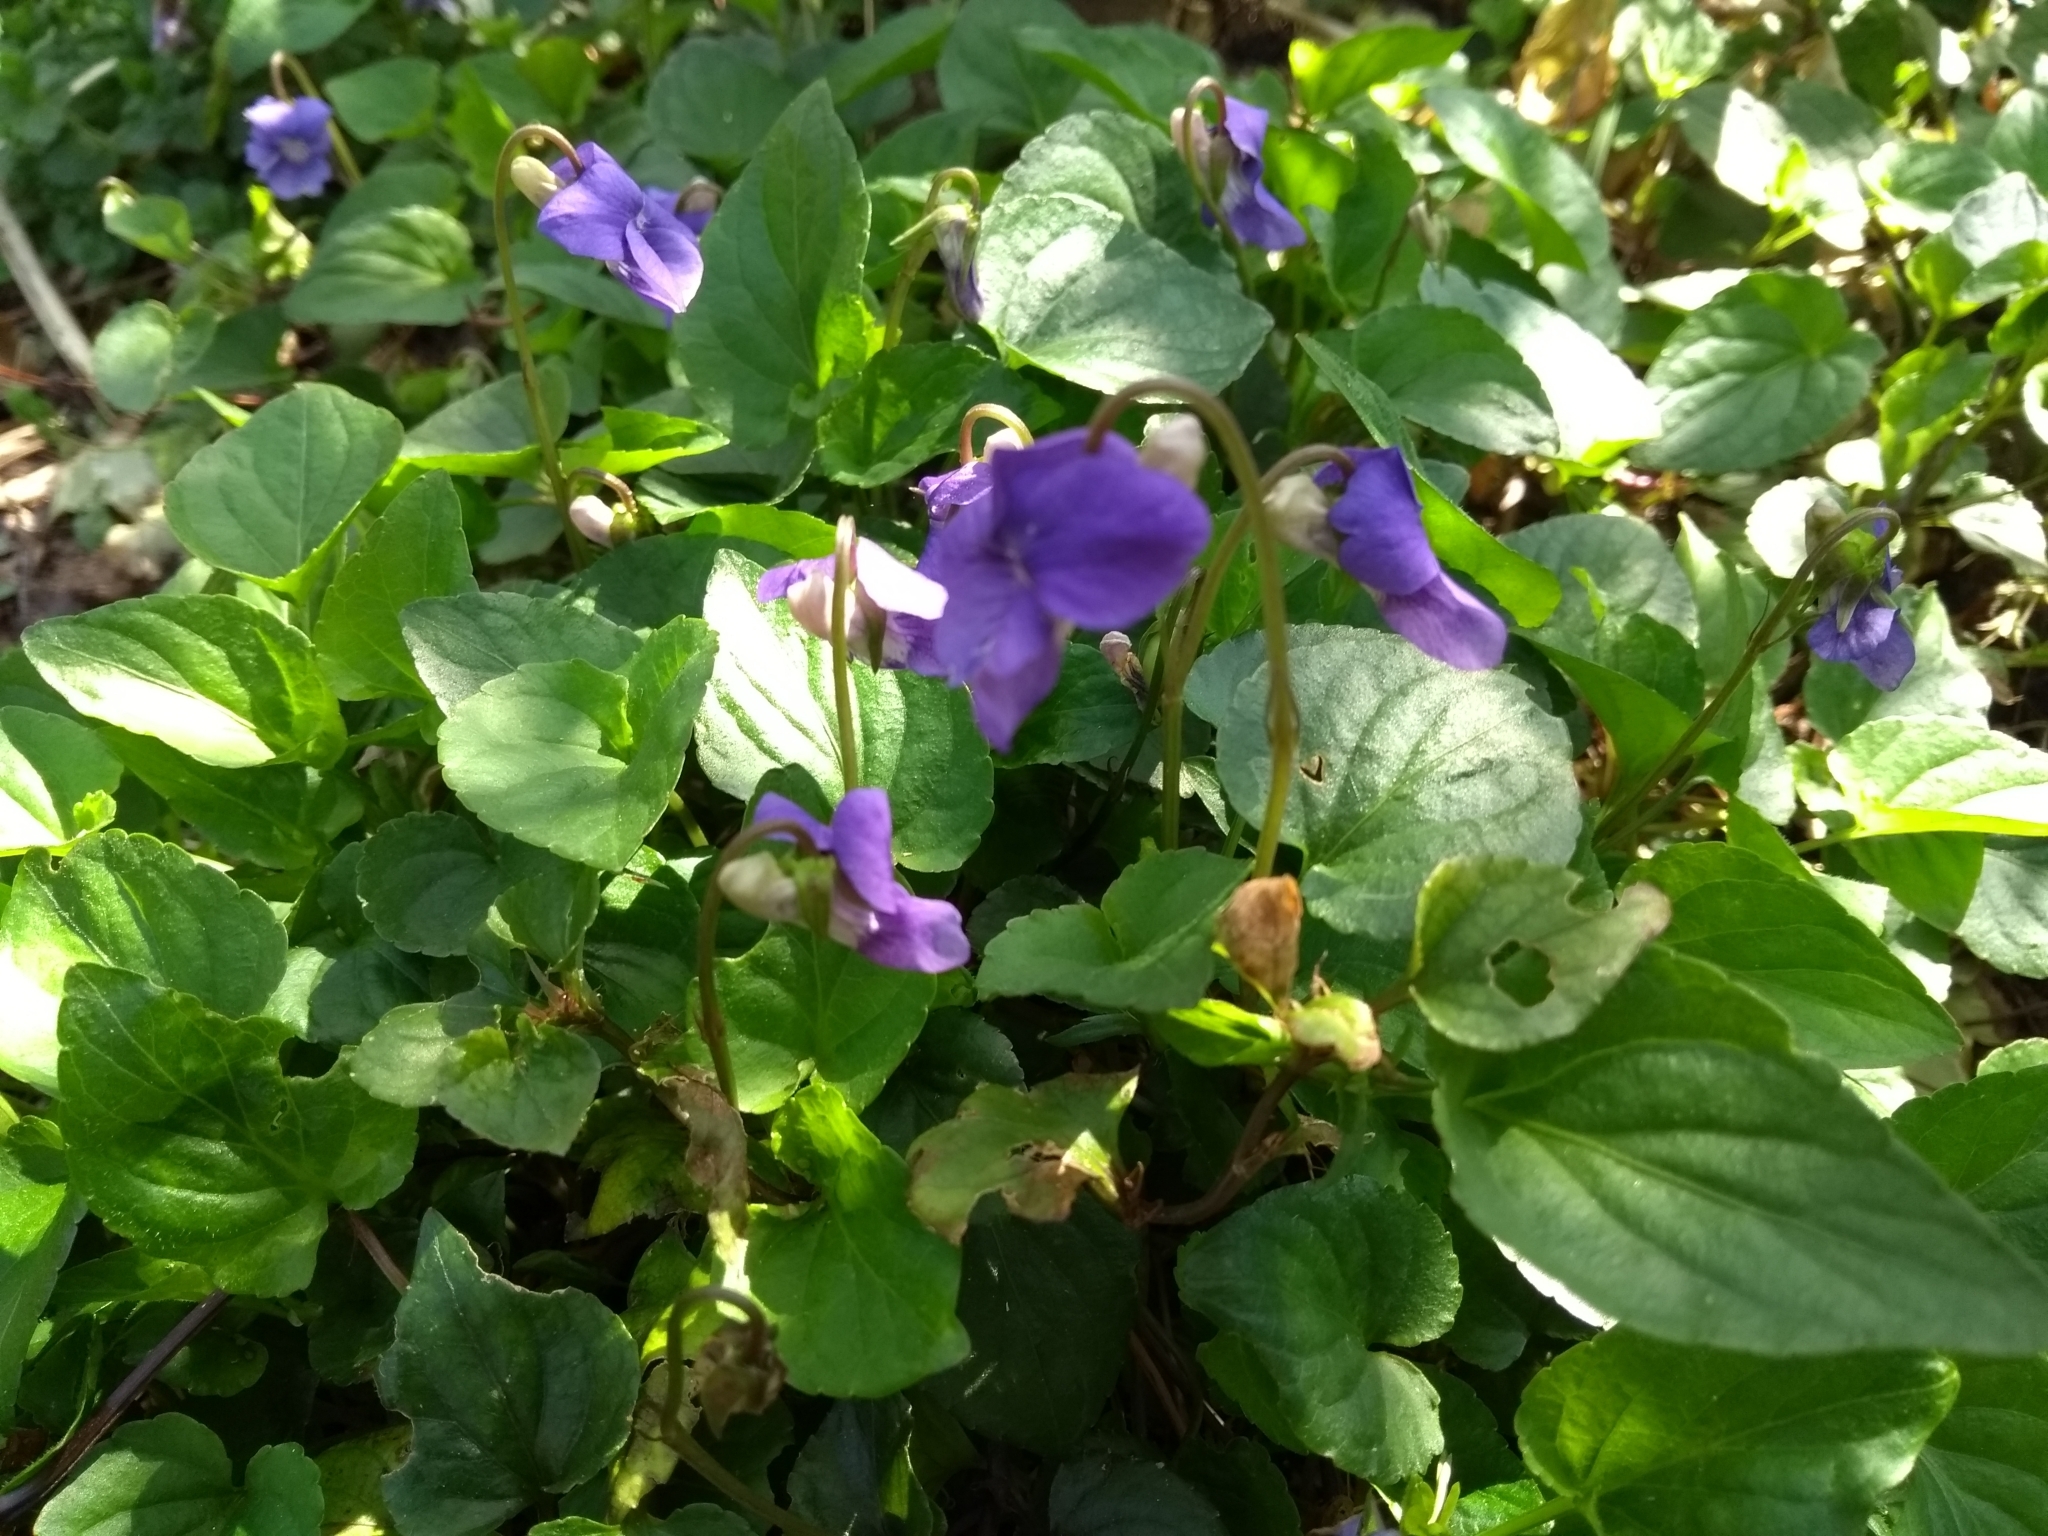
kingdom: Plantae
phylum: Tracheophyta
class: Magnoliopsida
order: Malpighiales
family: Violaceae
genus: Viola
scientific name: Viola riviniana
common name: Common dog-violet
